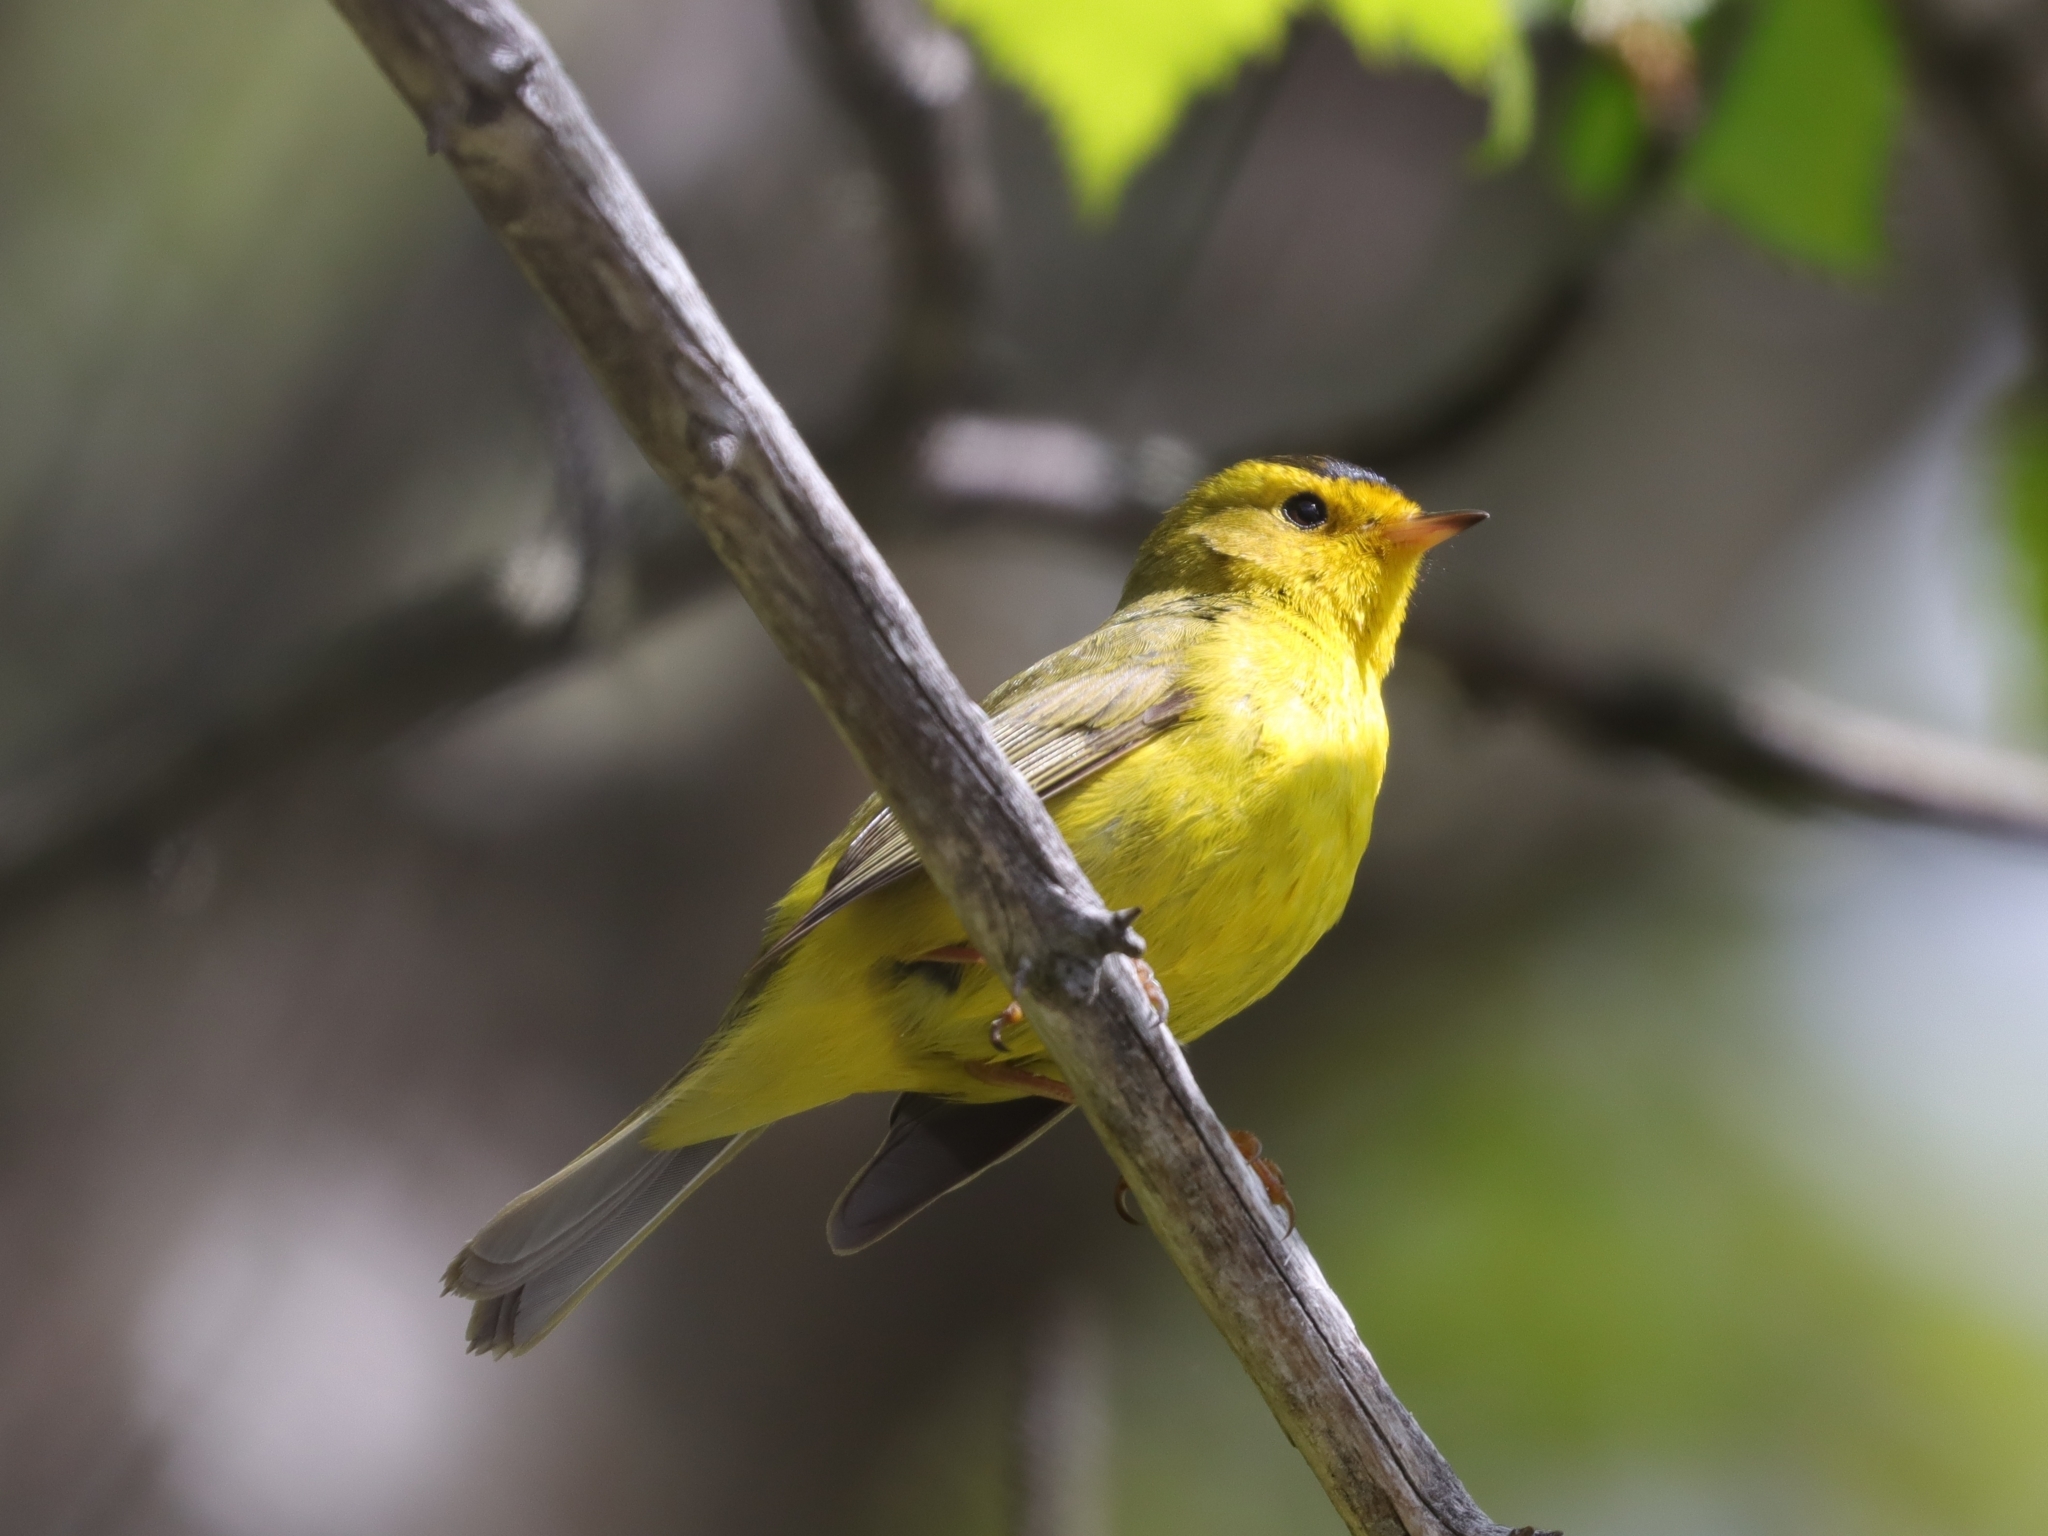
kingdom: Animalia
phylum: Chordata
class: Aves
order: Passeriformes
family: Parulidae
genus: Cardellina
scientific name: Cardellina pusilla
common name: Wilson's warbler
